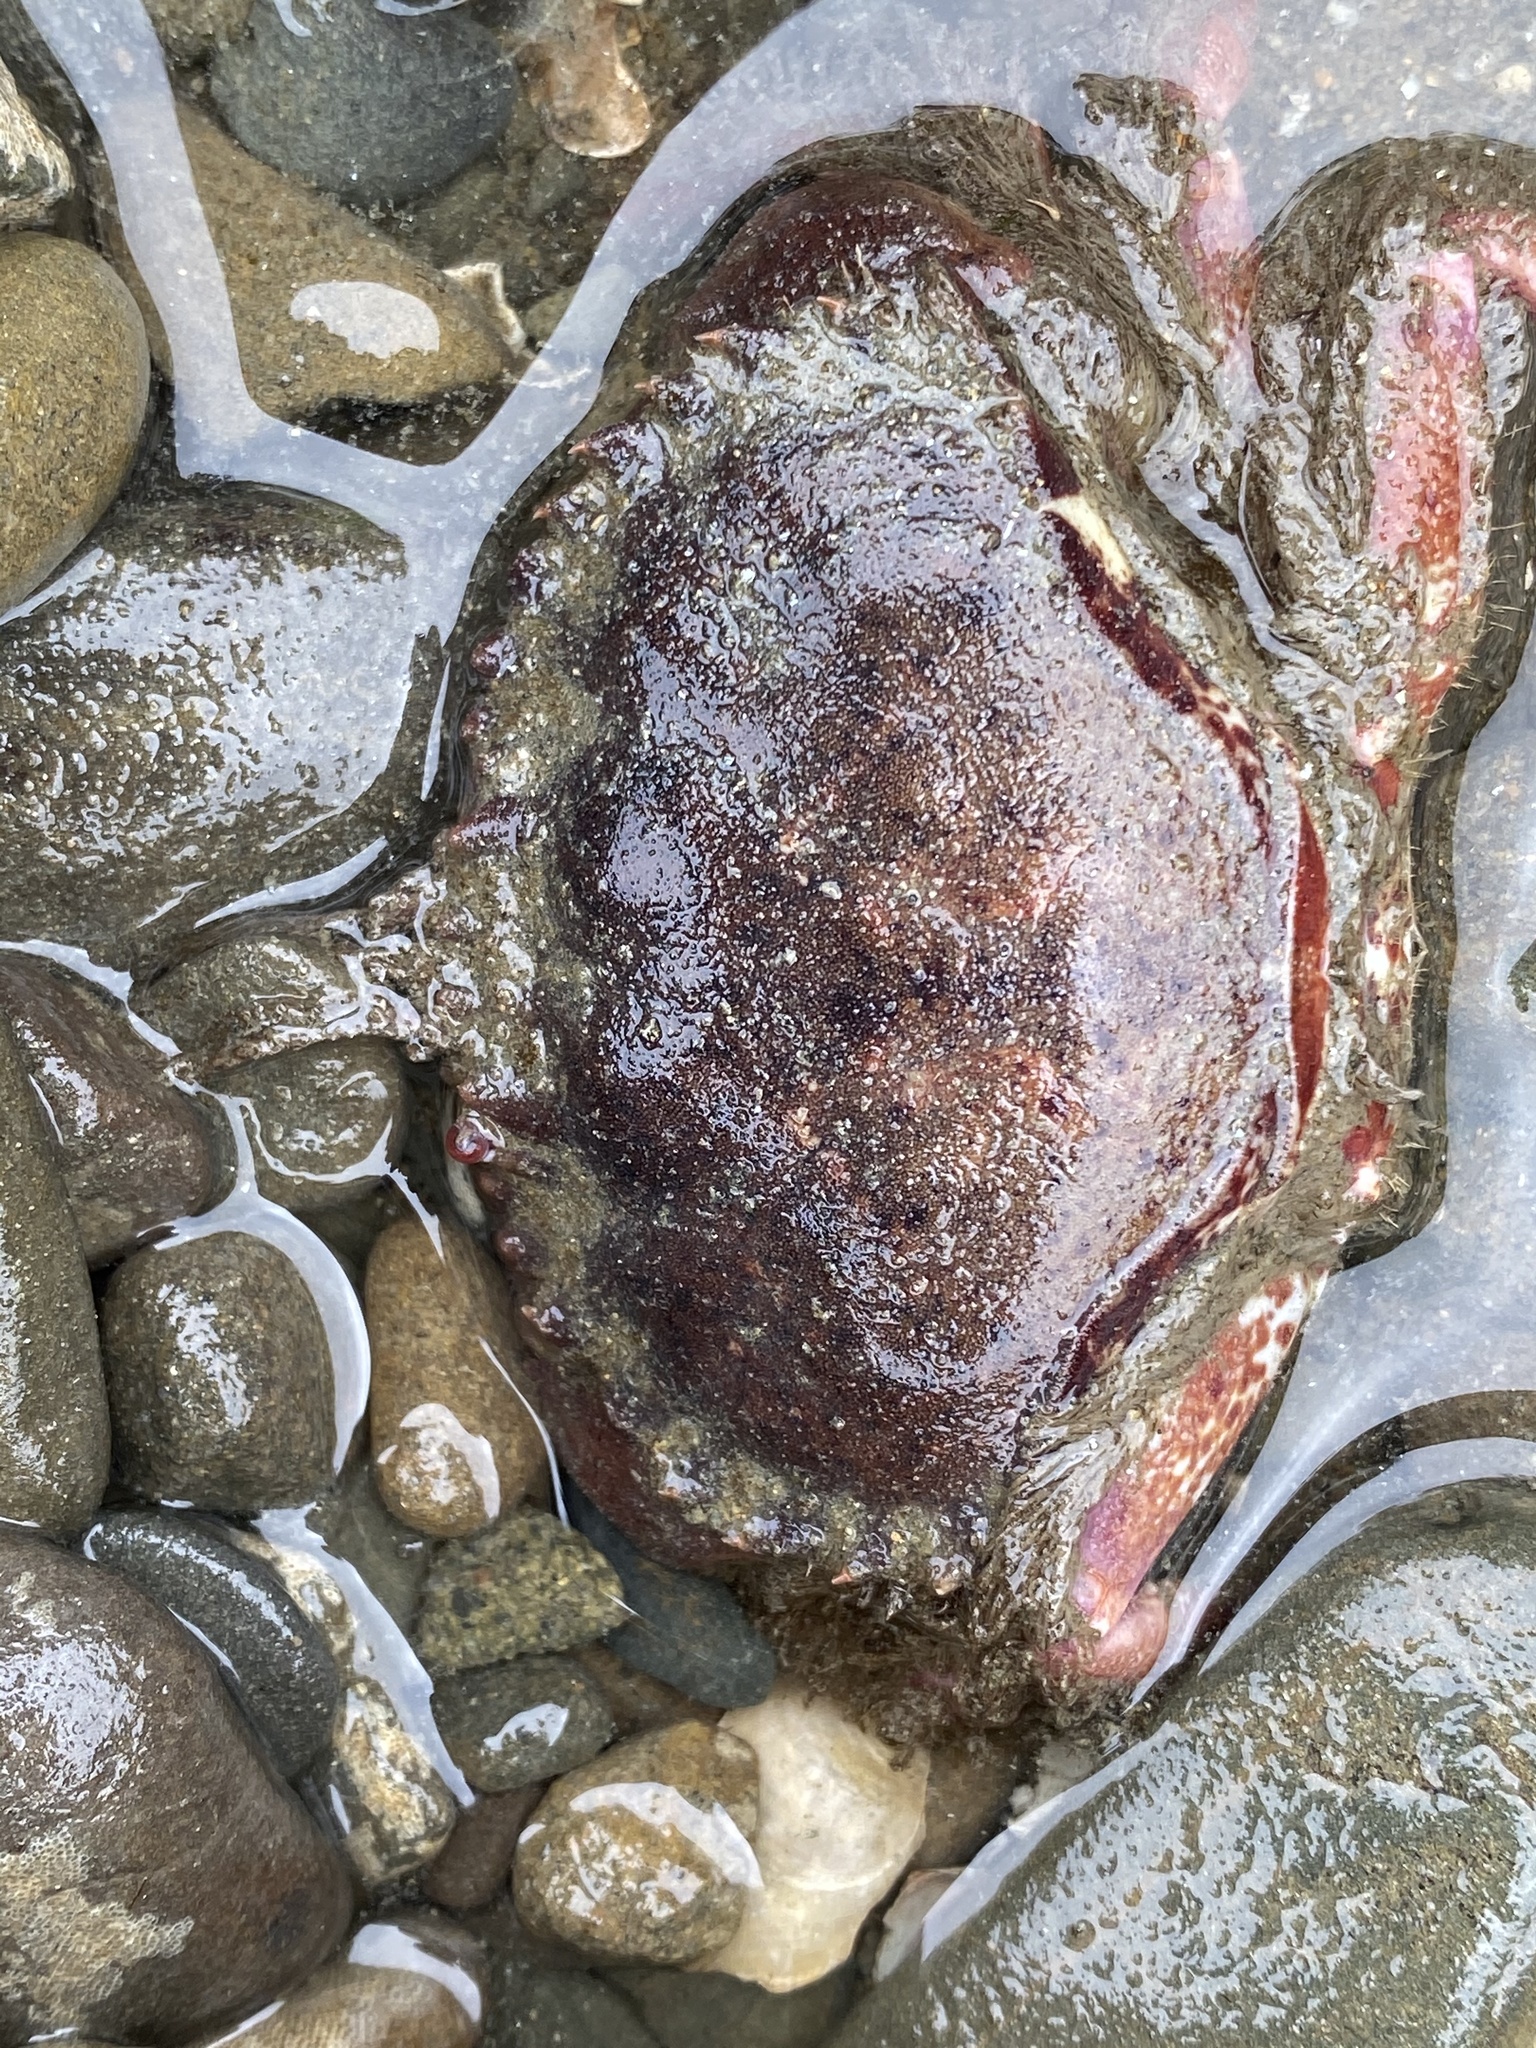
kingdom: Animalia
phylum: Arthropoda
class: Malacostraca
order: Decapoda
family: Cancridae
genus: Romaleon
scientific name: Romaleon antennarium
